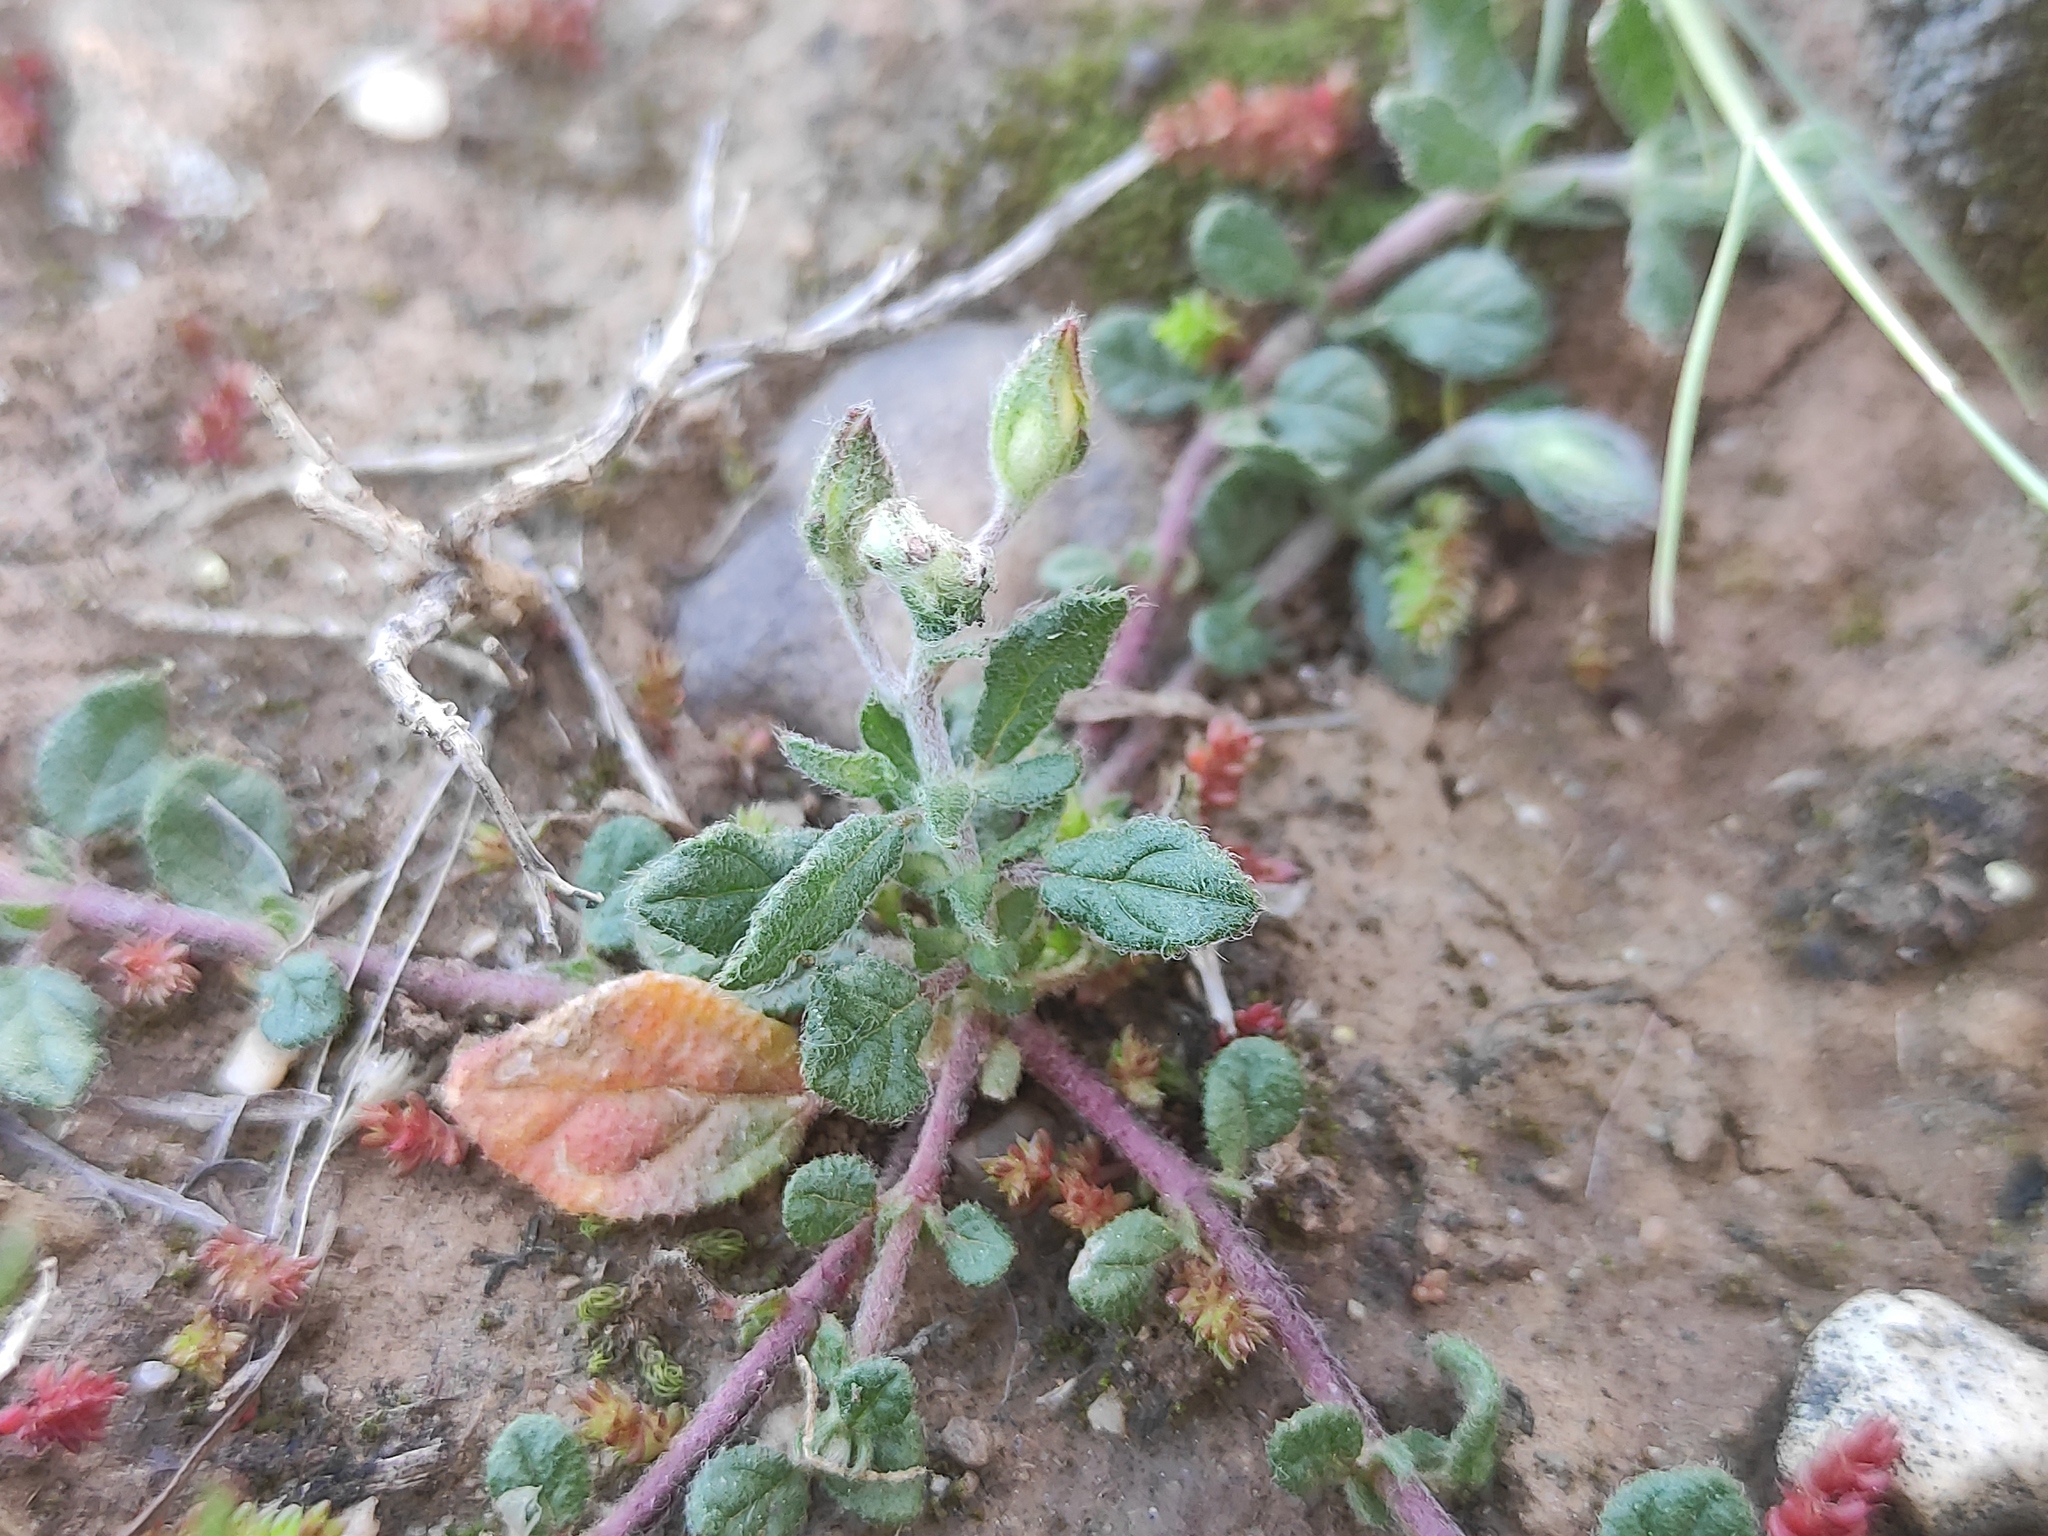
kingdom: Plantae
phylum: Tracheophyta
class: Magnoliopsida
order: Malvales
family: Cistaceae
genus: Helianthemum
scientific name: Helianthemum salicifolium
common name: Willowleaf frostweed
